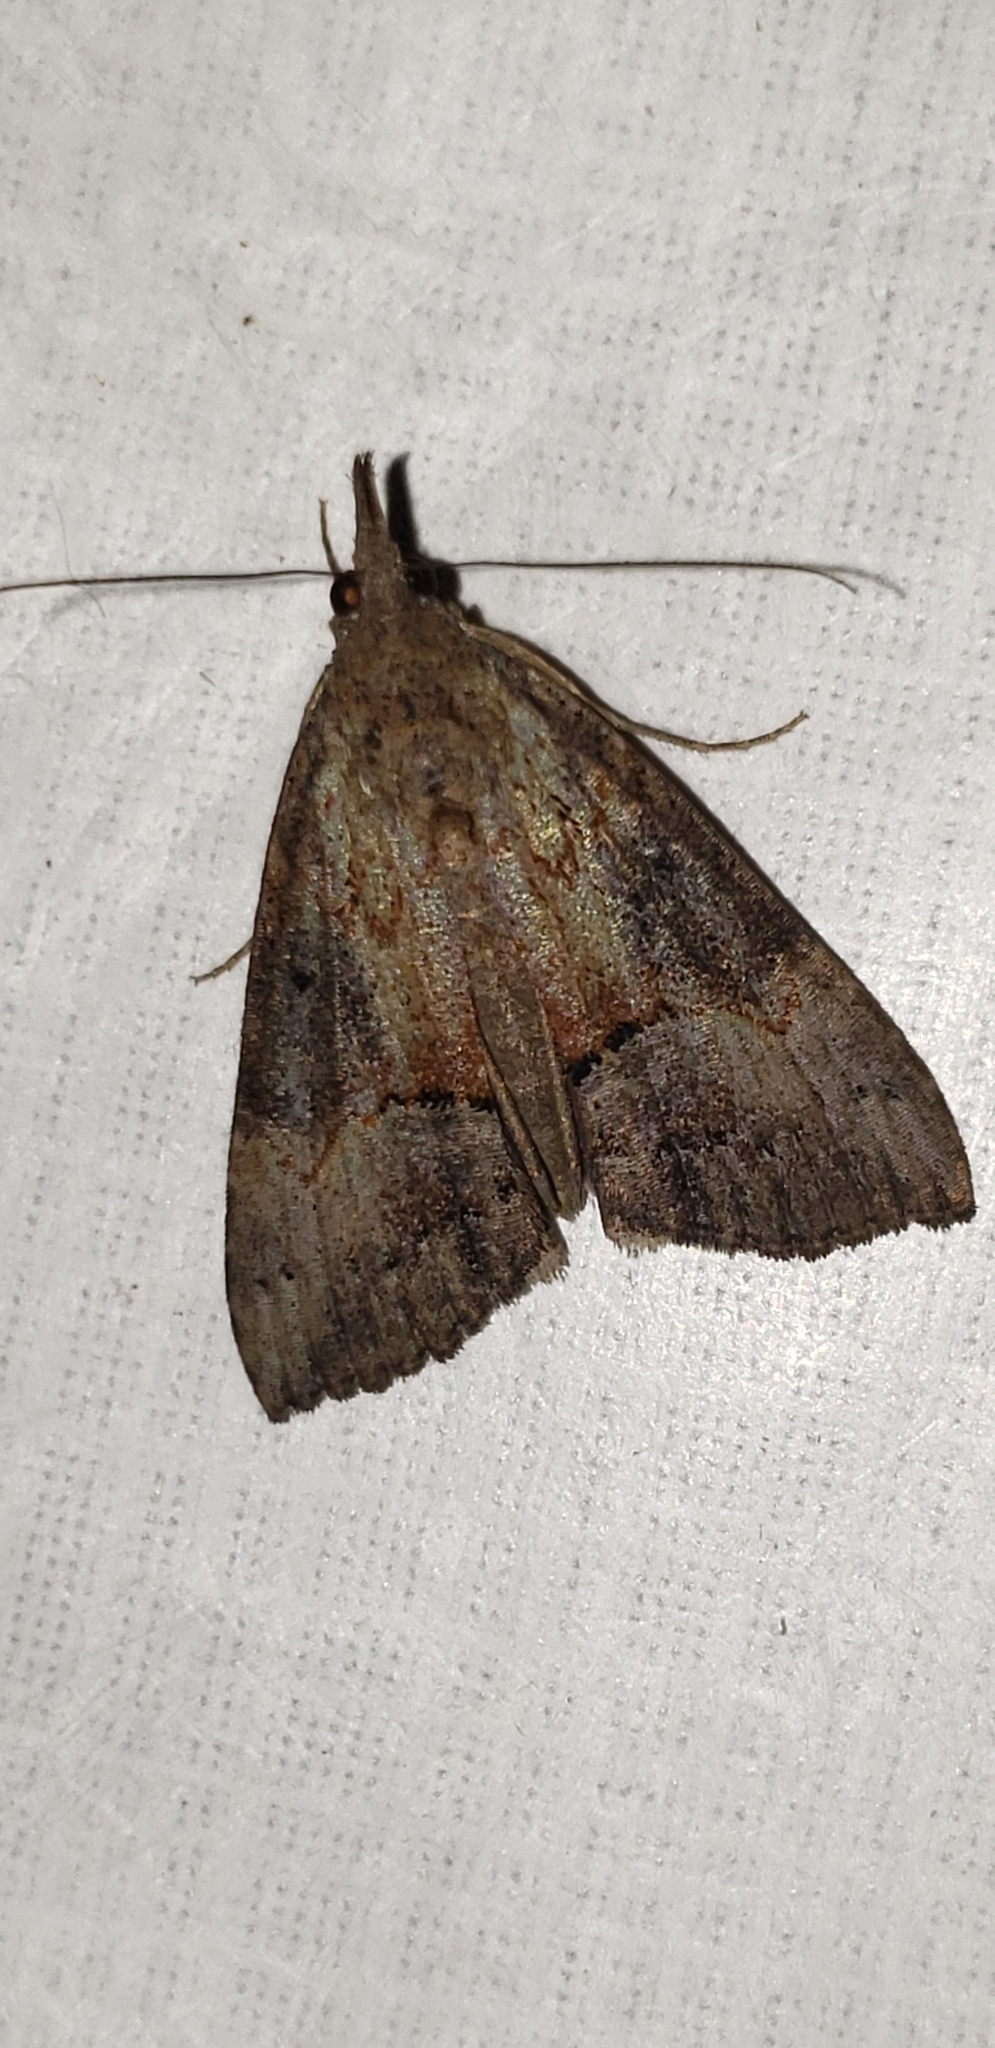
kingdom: Animalia
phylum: Arthropoda
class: Insecta
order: Lepidoptera
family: Erebidae
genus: Hypena
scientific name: Hypena scabra
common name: Green cloverworm
